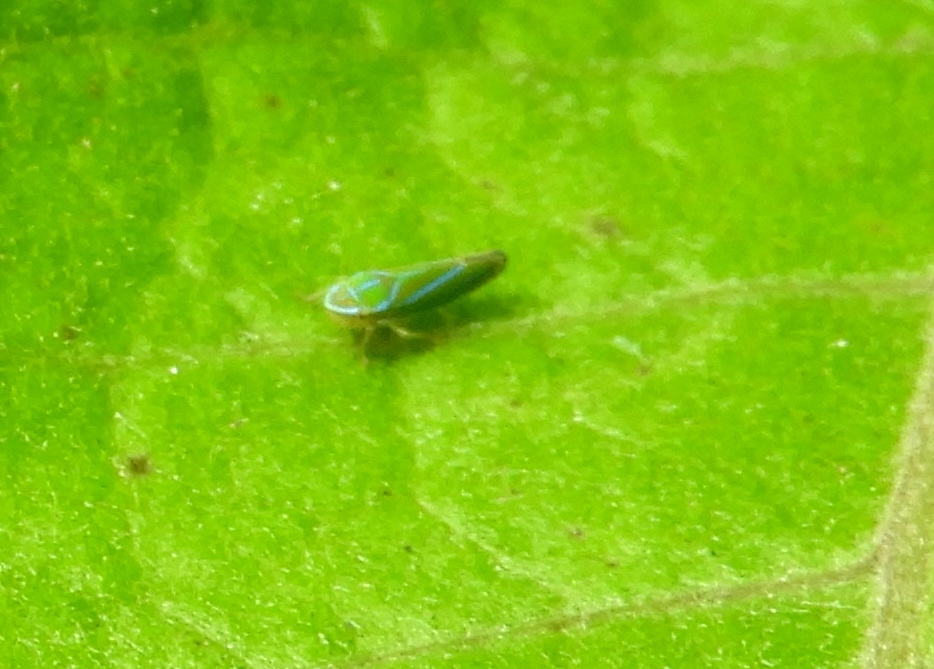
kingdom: Animalia
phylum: Arthropoda
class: Insecta
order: Hemiptera
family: Cicadellidae
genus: Graphocephala
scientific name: Graphocephala
